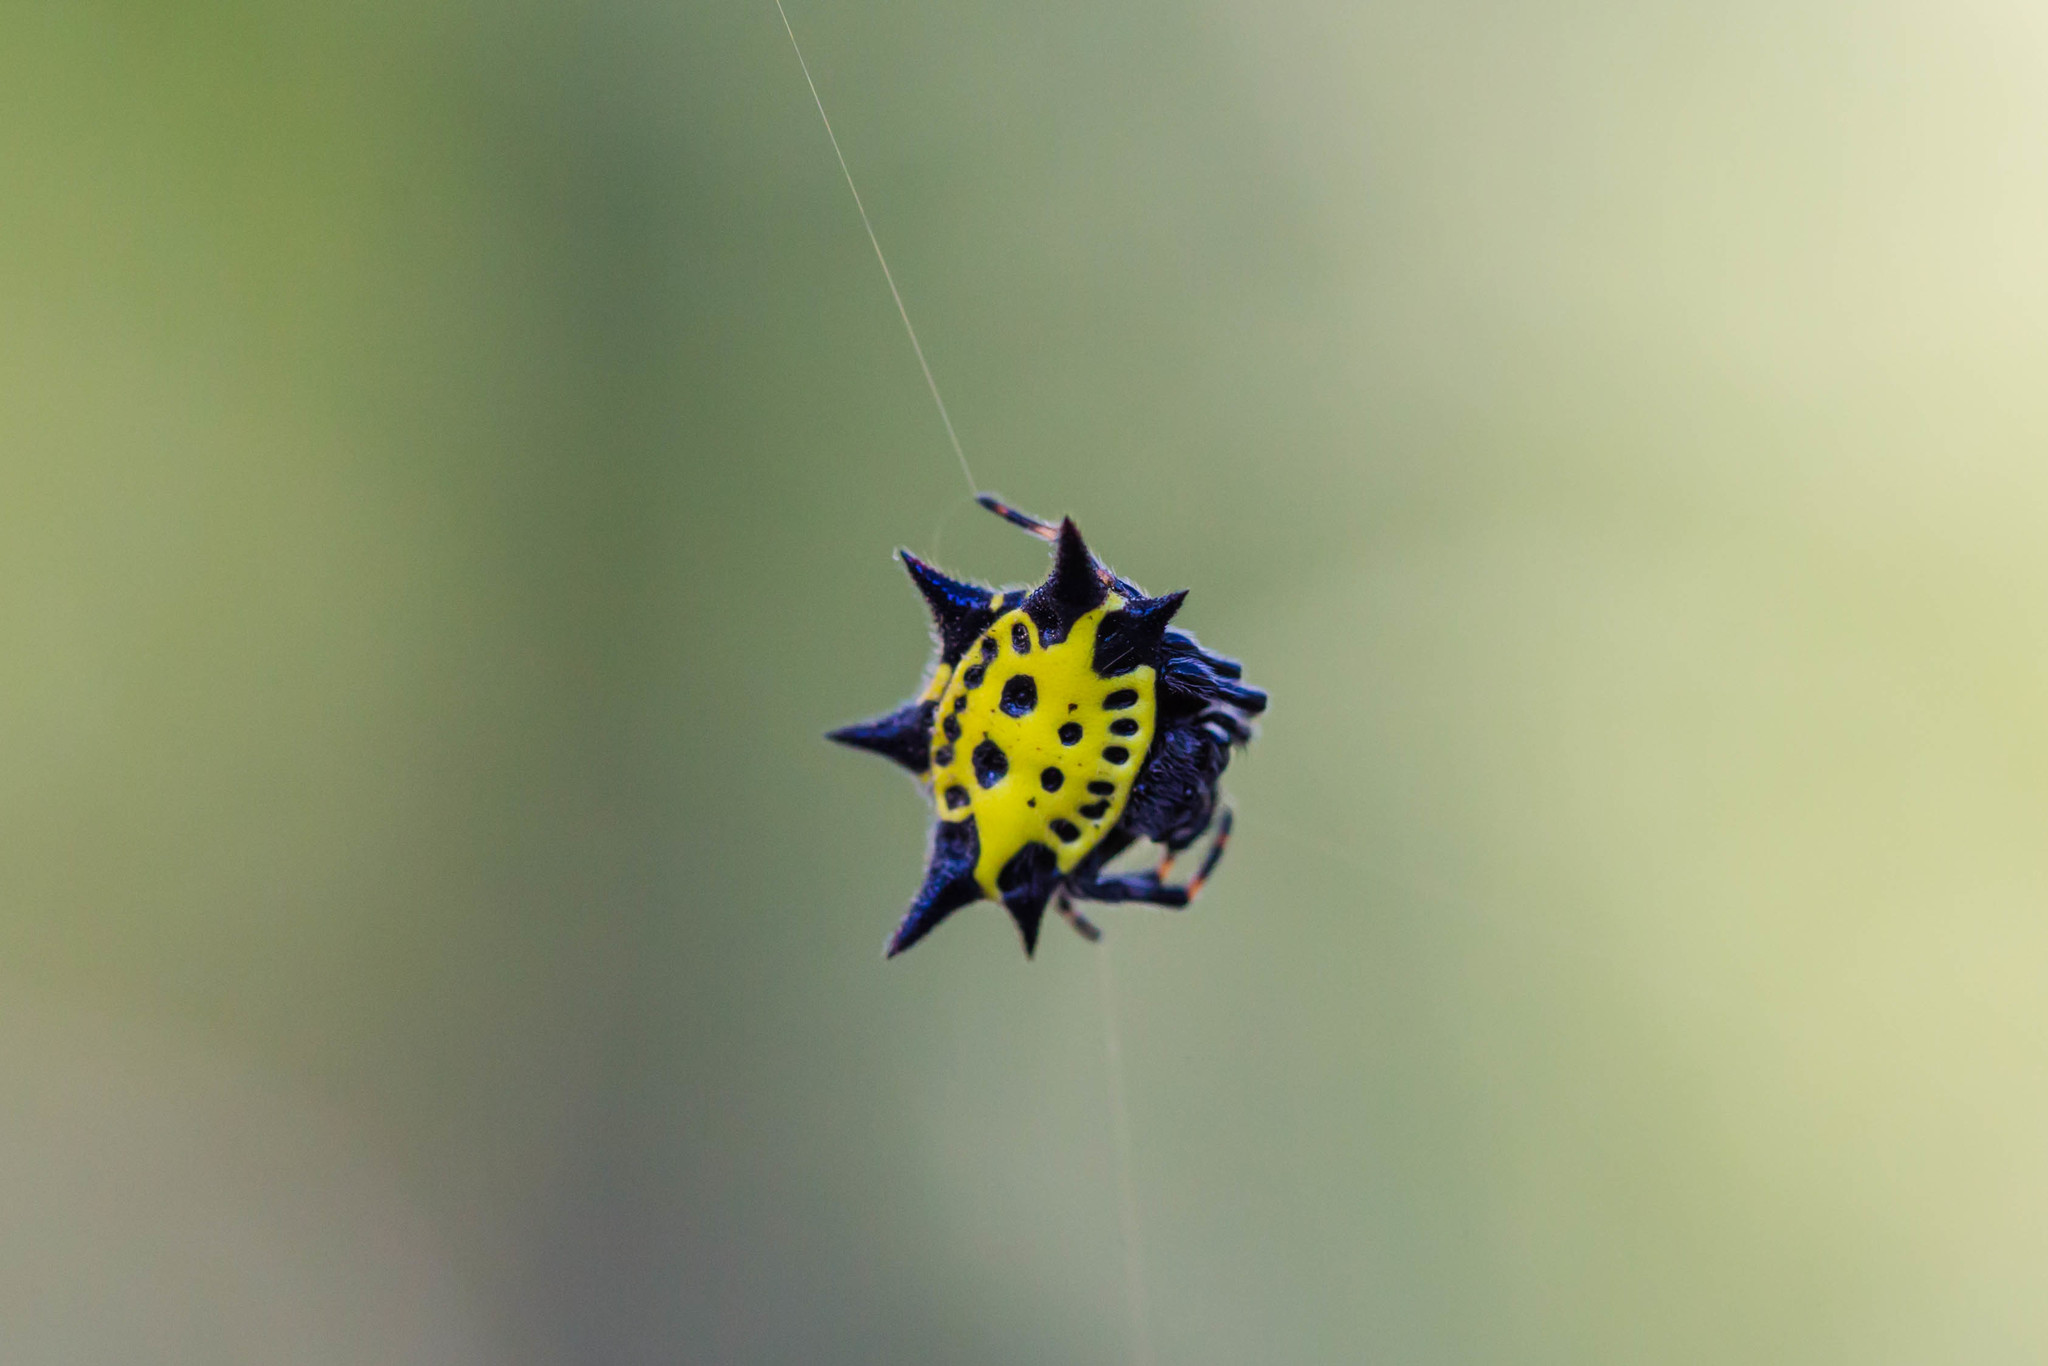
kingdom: Animalia
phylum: Arthropoda
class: Arachnida
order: Araneae
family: Araneidae
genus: Gasteracantha
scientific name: Gasteracantha cancriformis
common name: Orb weavers
